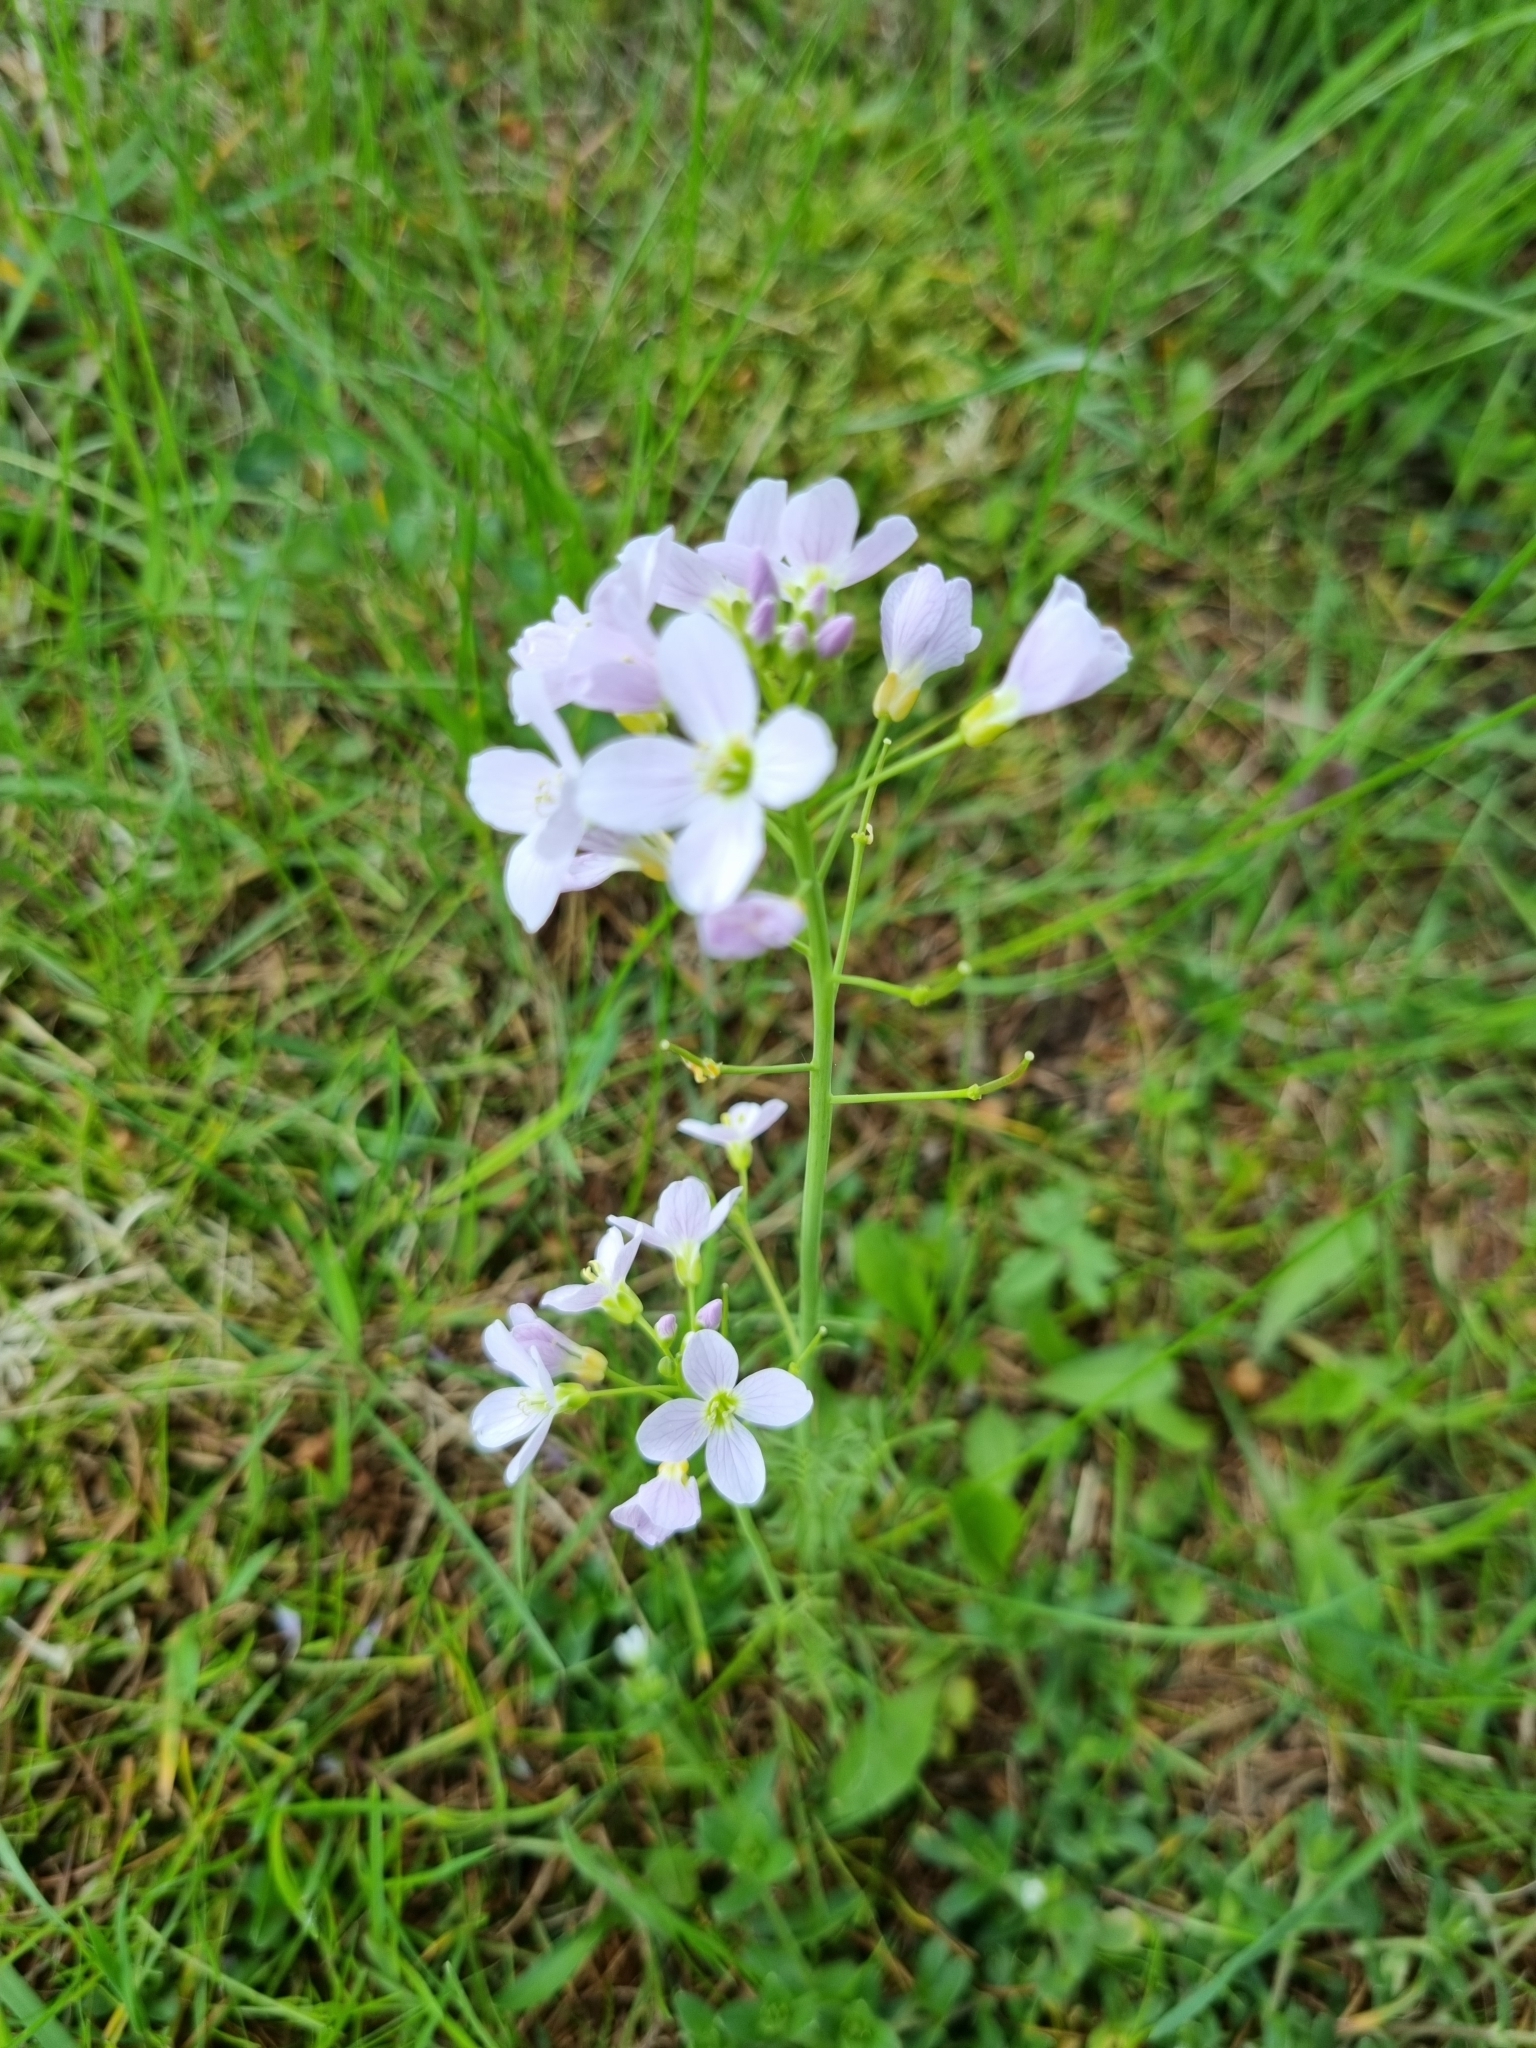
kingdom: Plantae
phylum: Tracheophyta
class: Magnoliopsida
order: Brassicales
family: Brassicaceae
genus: Cardamine
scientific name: Cardamine pratensis
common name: Cuckoo flower
